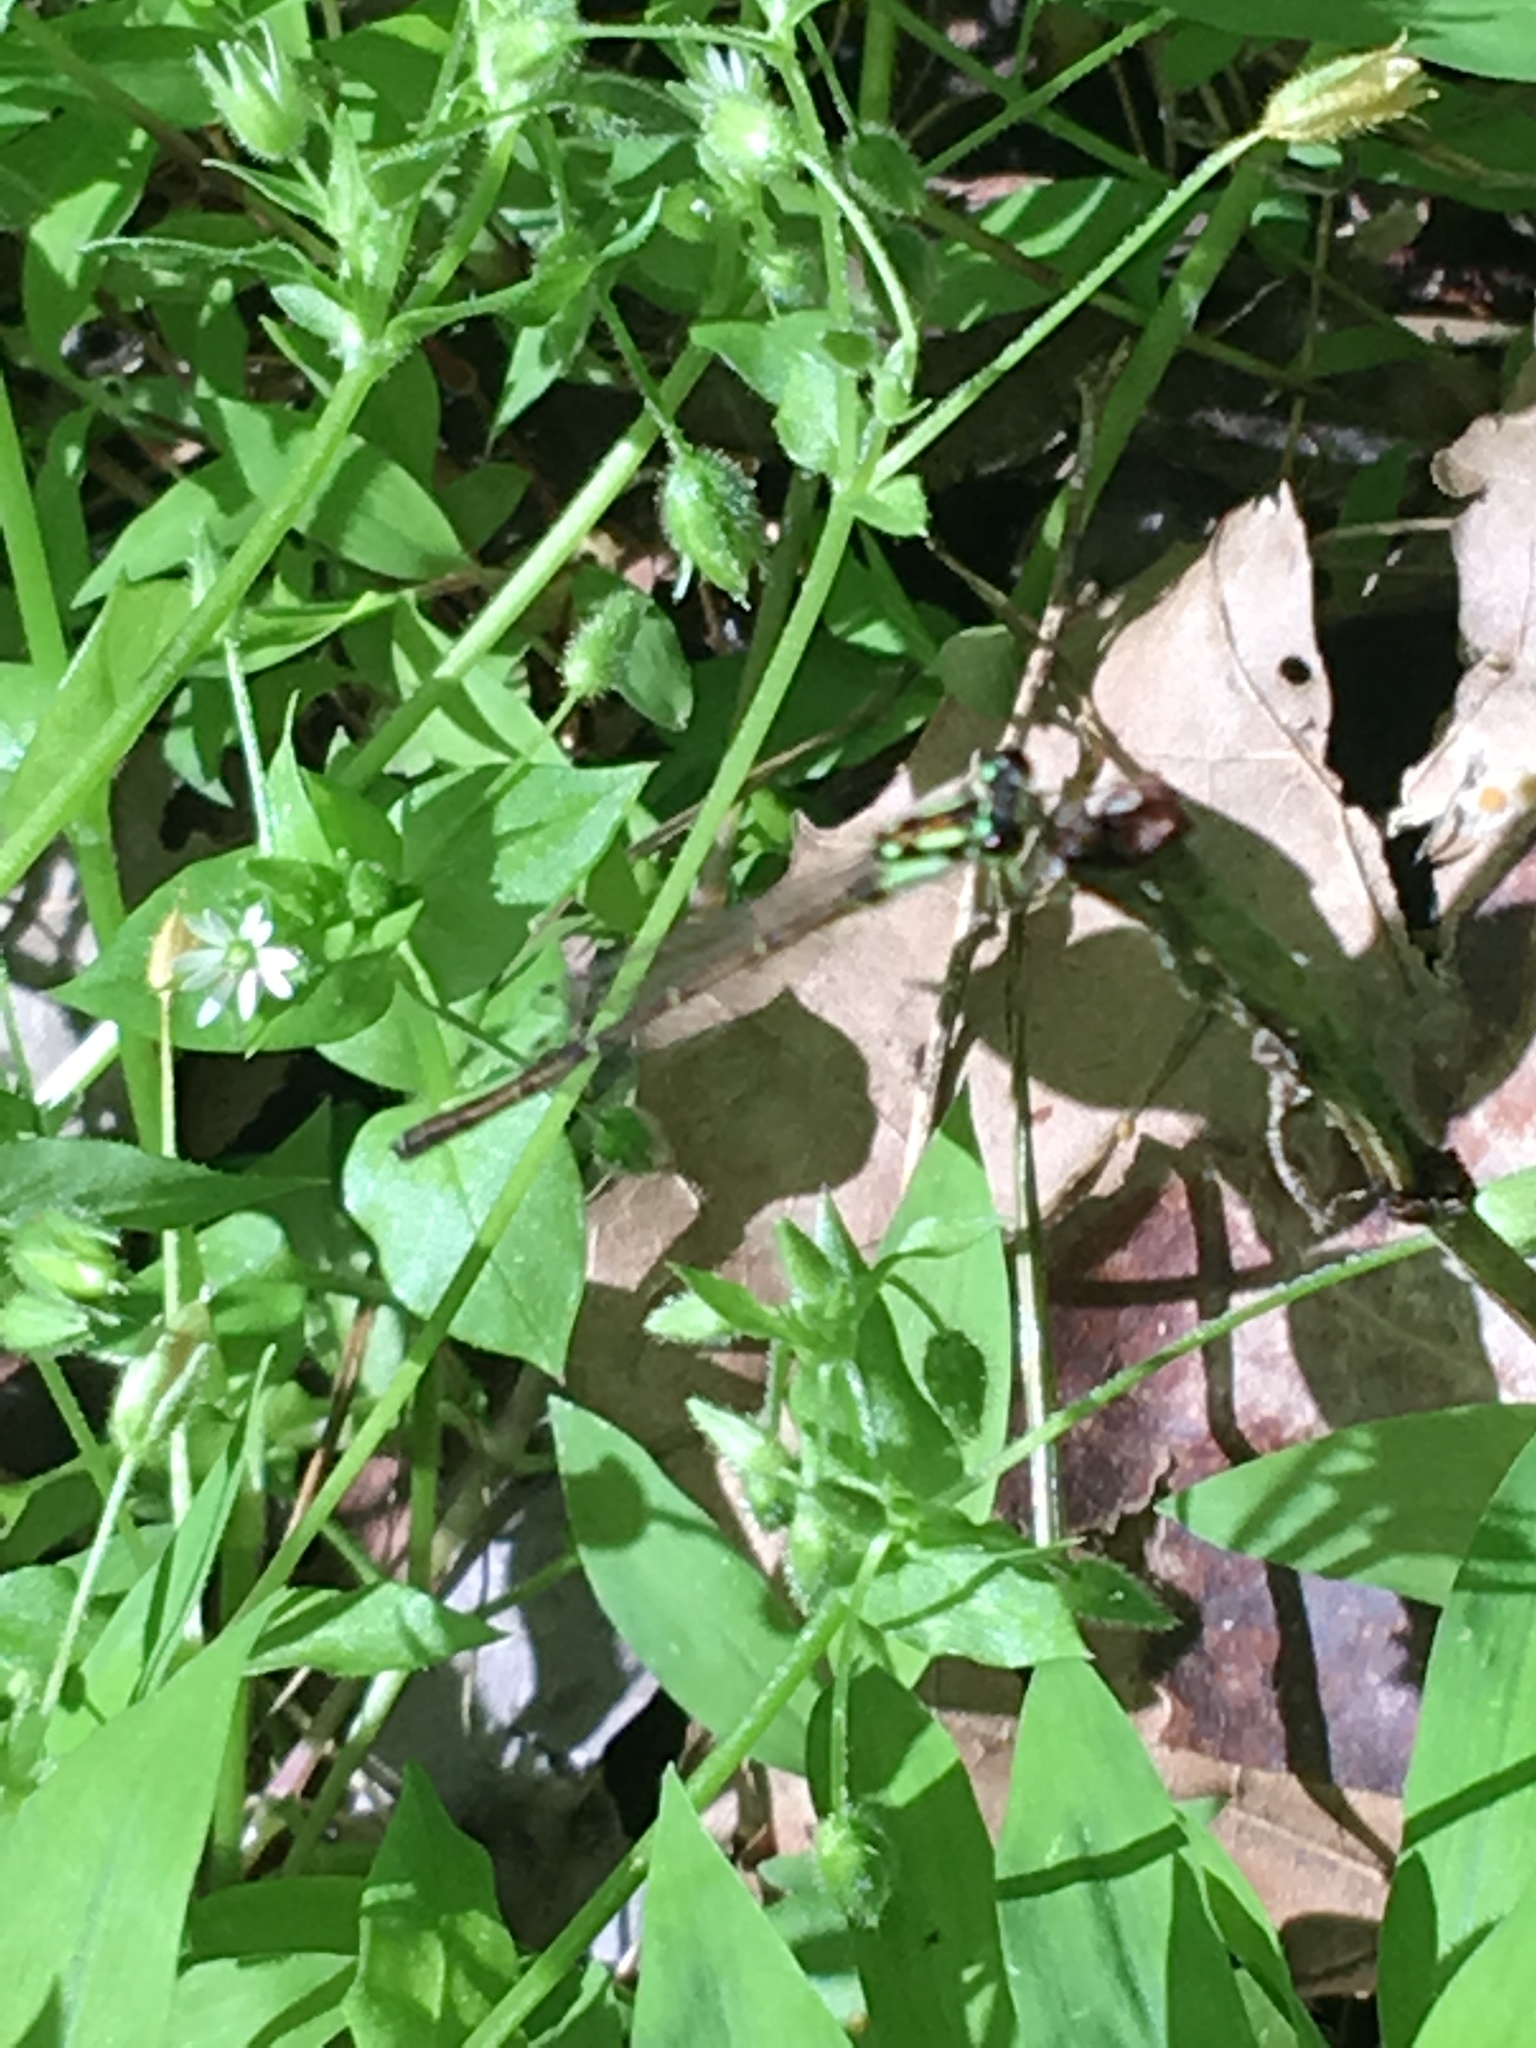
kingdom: Animalia
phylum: Arthropoda
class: Insecta
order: Odonata
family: Coenagrionidae
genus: Ischnura
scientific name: Ischnura posita
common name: Fragile forktail
